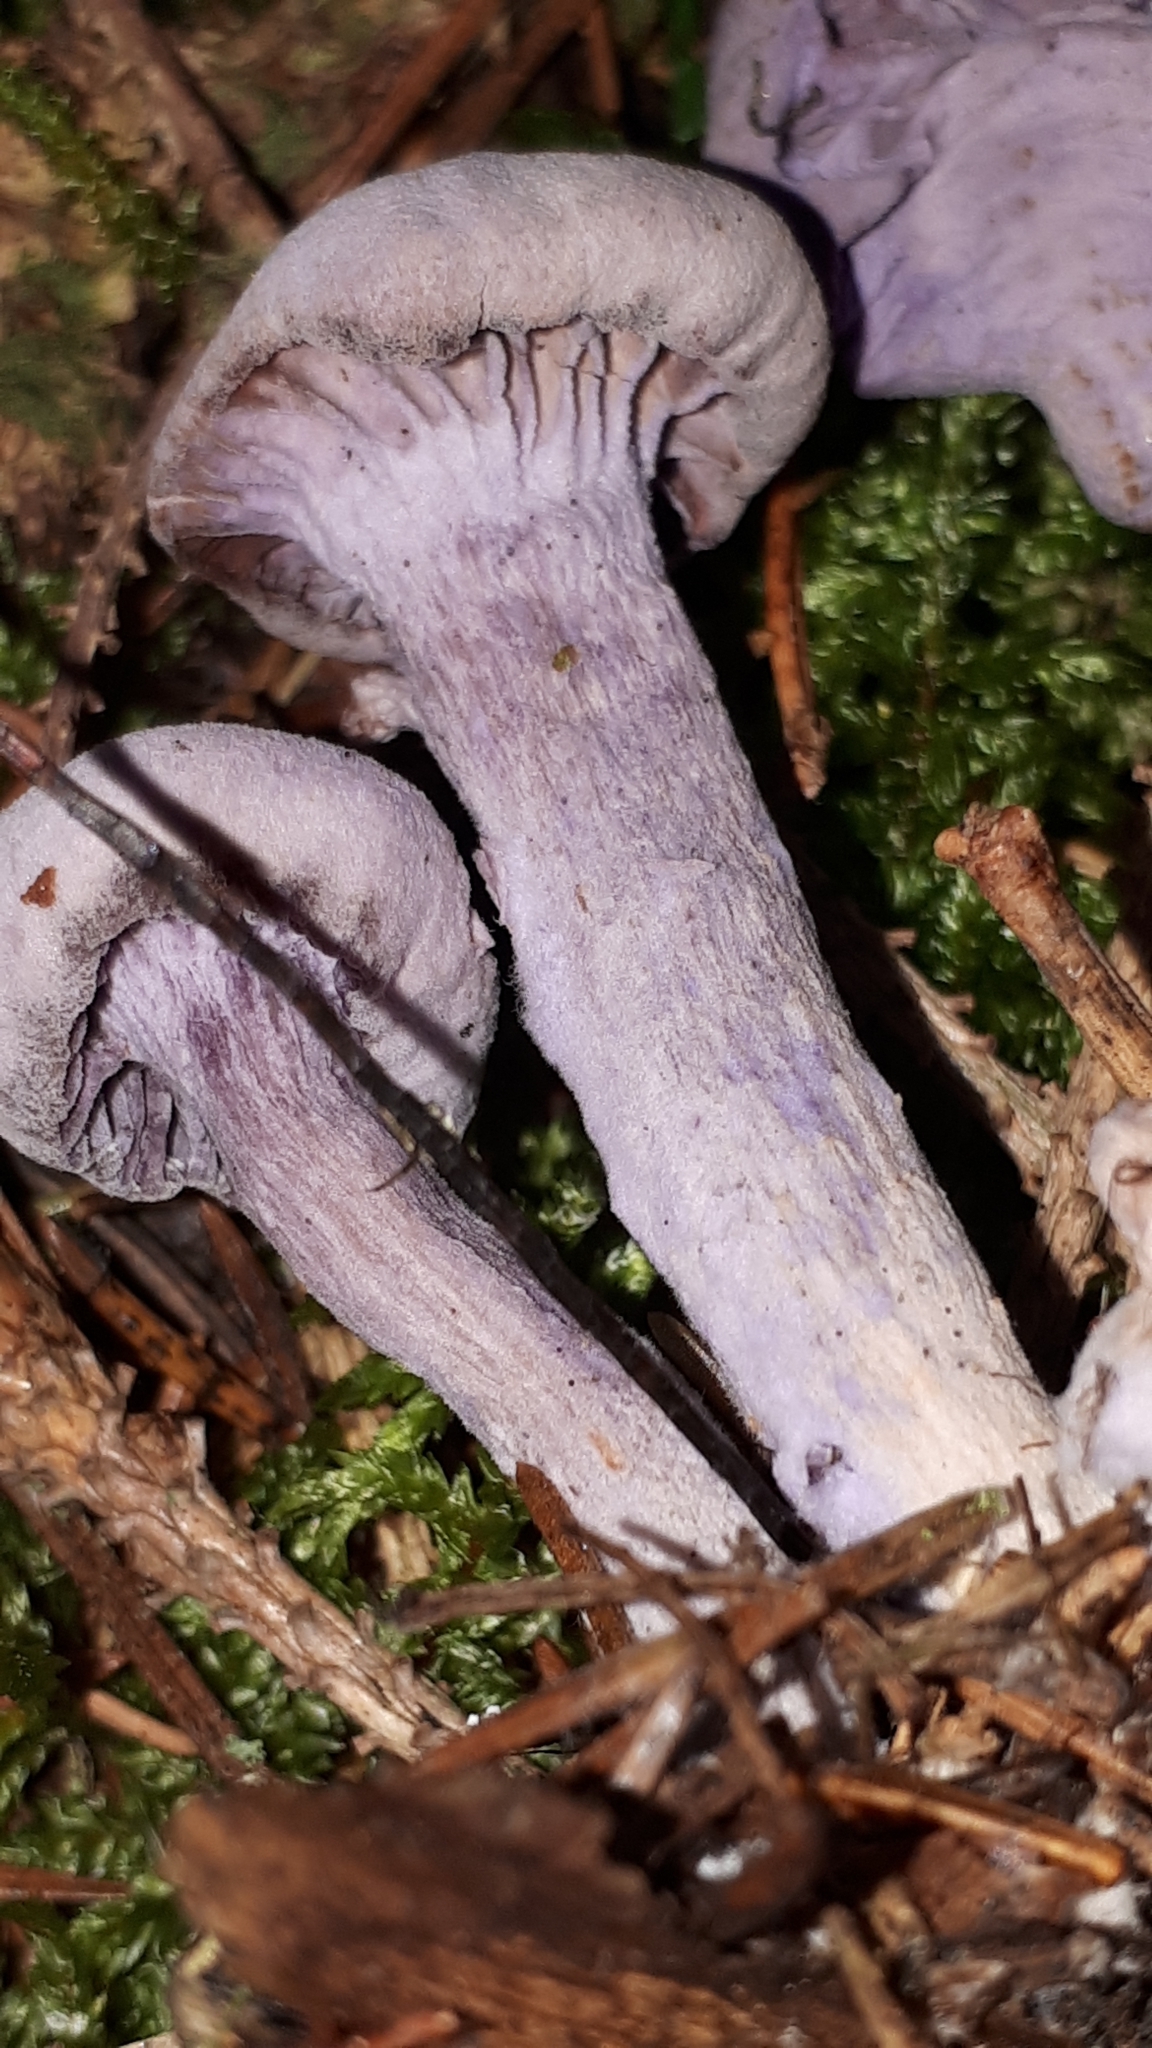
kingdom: Fungi
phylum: Basidiomycota
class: Agaricomycetes
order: Agaricales
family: Hydnangiaceae
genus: Laccaria
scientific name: Laccaria amethystina
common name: Amethyst deceiver
